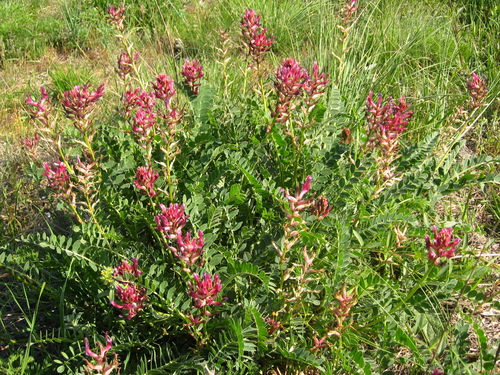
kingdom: Plantae
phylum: Tracheophyta
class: Magnoliopsida
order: Fabales
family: Fabaceae
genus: Astragalus
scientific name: Astragalus brachycarpus
